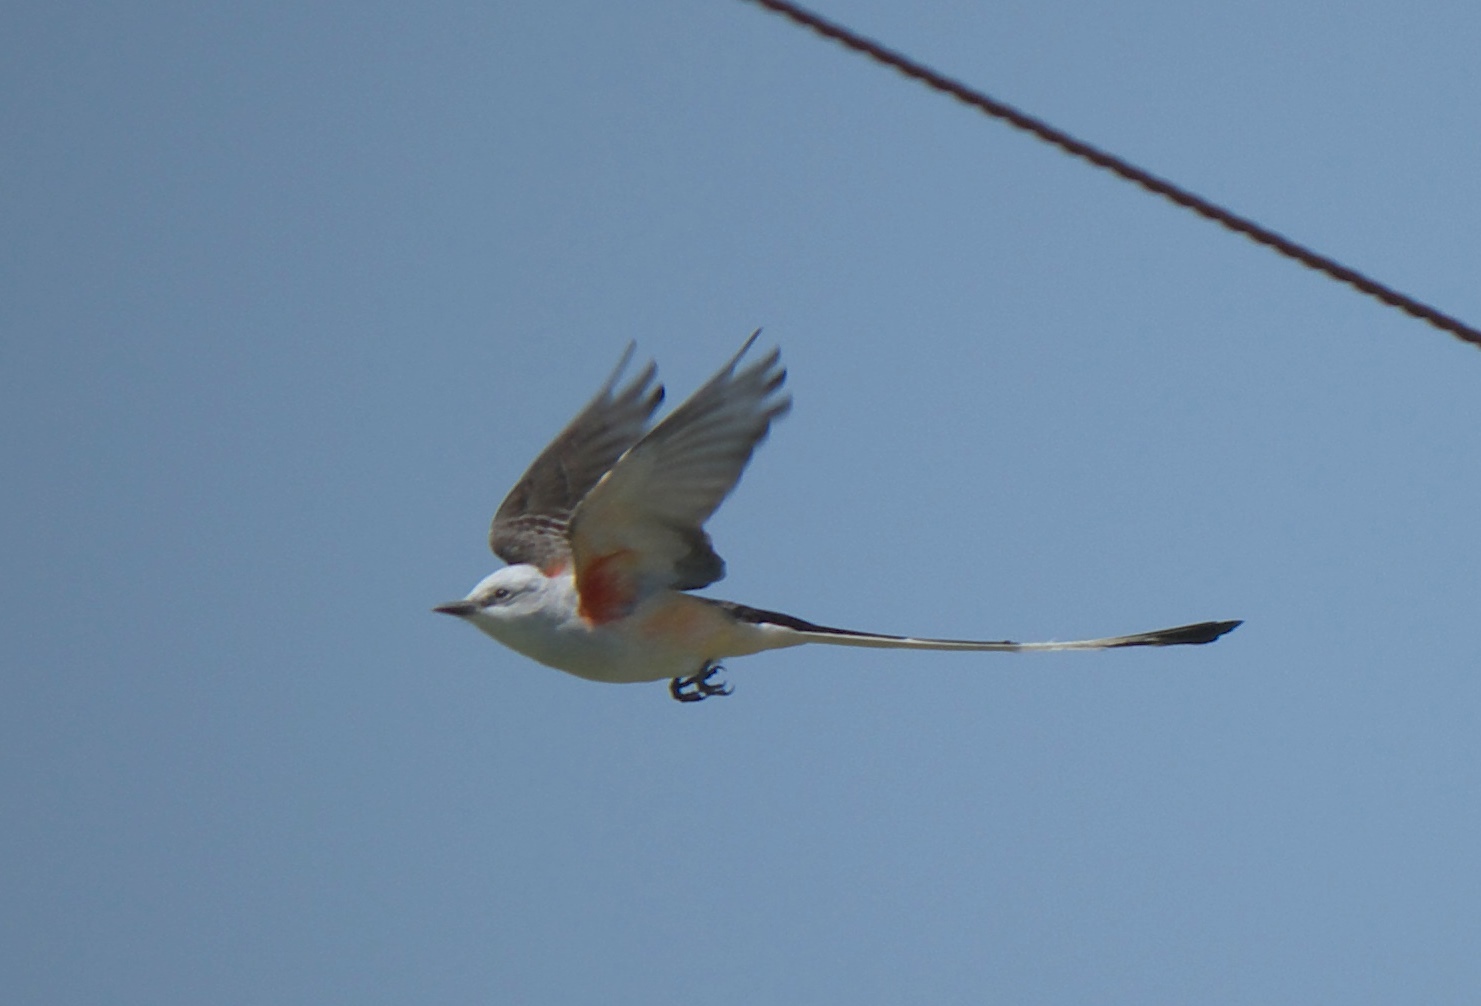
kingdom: Animalia
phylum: Chordata
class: Aves
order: Passeriformes
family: Tyrannidae
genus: Tyrannus
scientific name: Tyrannus forficatus
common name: Scissor-tailed flycatcher
